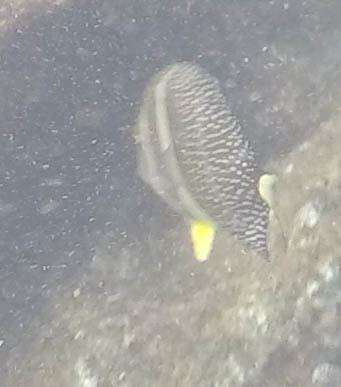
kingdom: Animalia
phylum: Chordata
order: Perciformes
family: Acanthuridae
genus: Acanthurus
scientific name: Acanthurus guttatus
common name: Whitespotted surgeonfish
